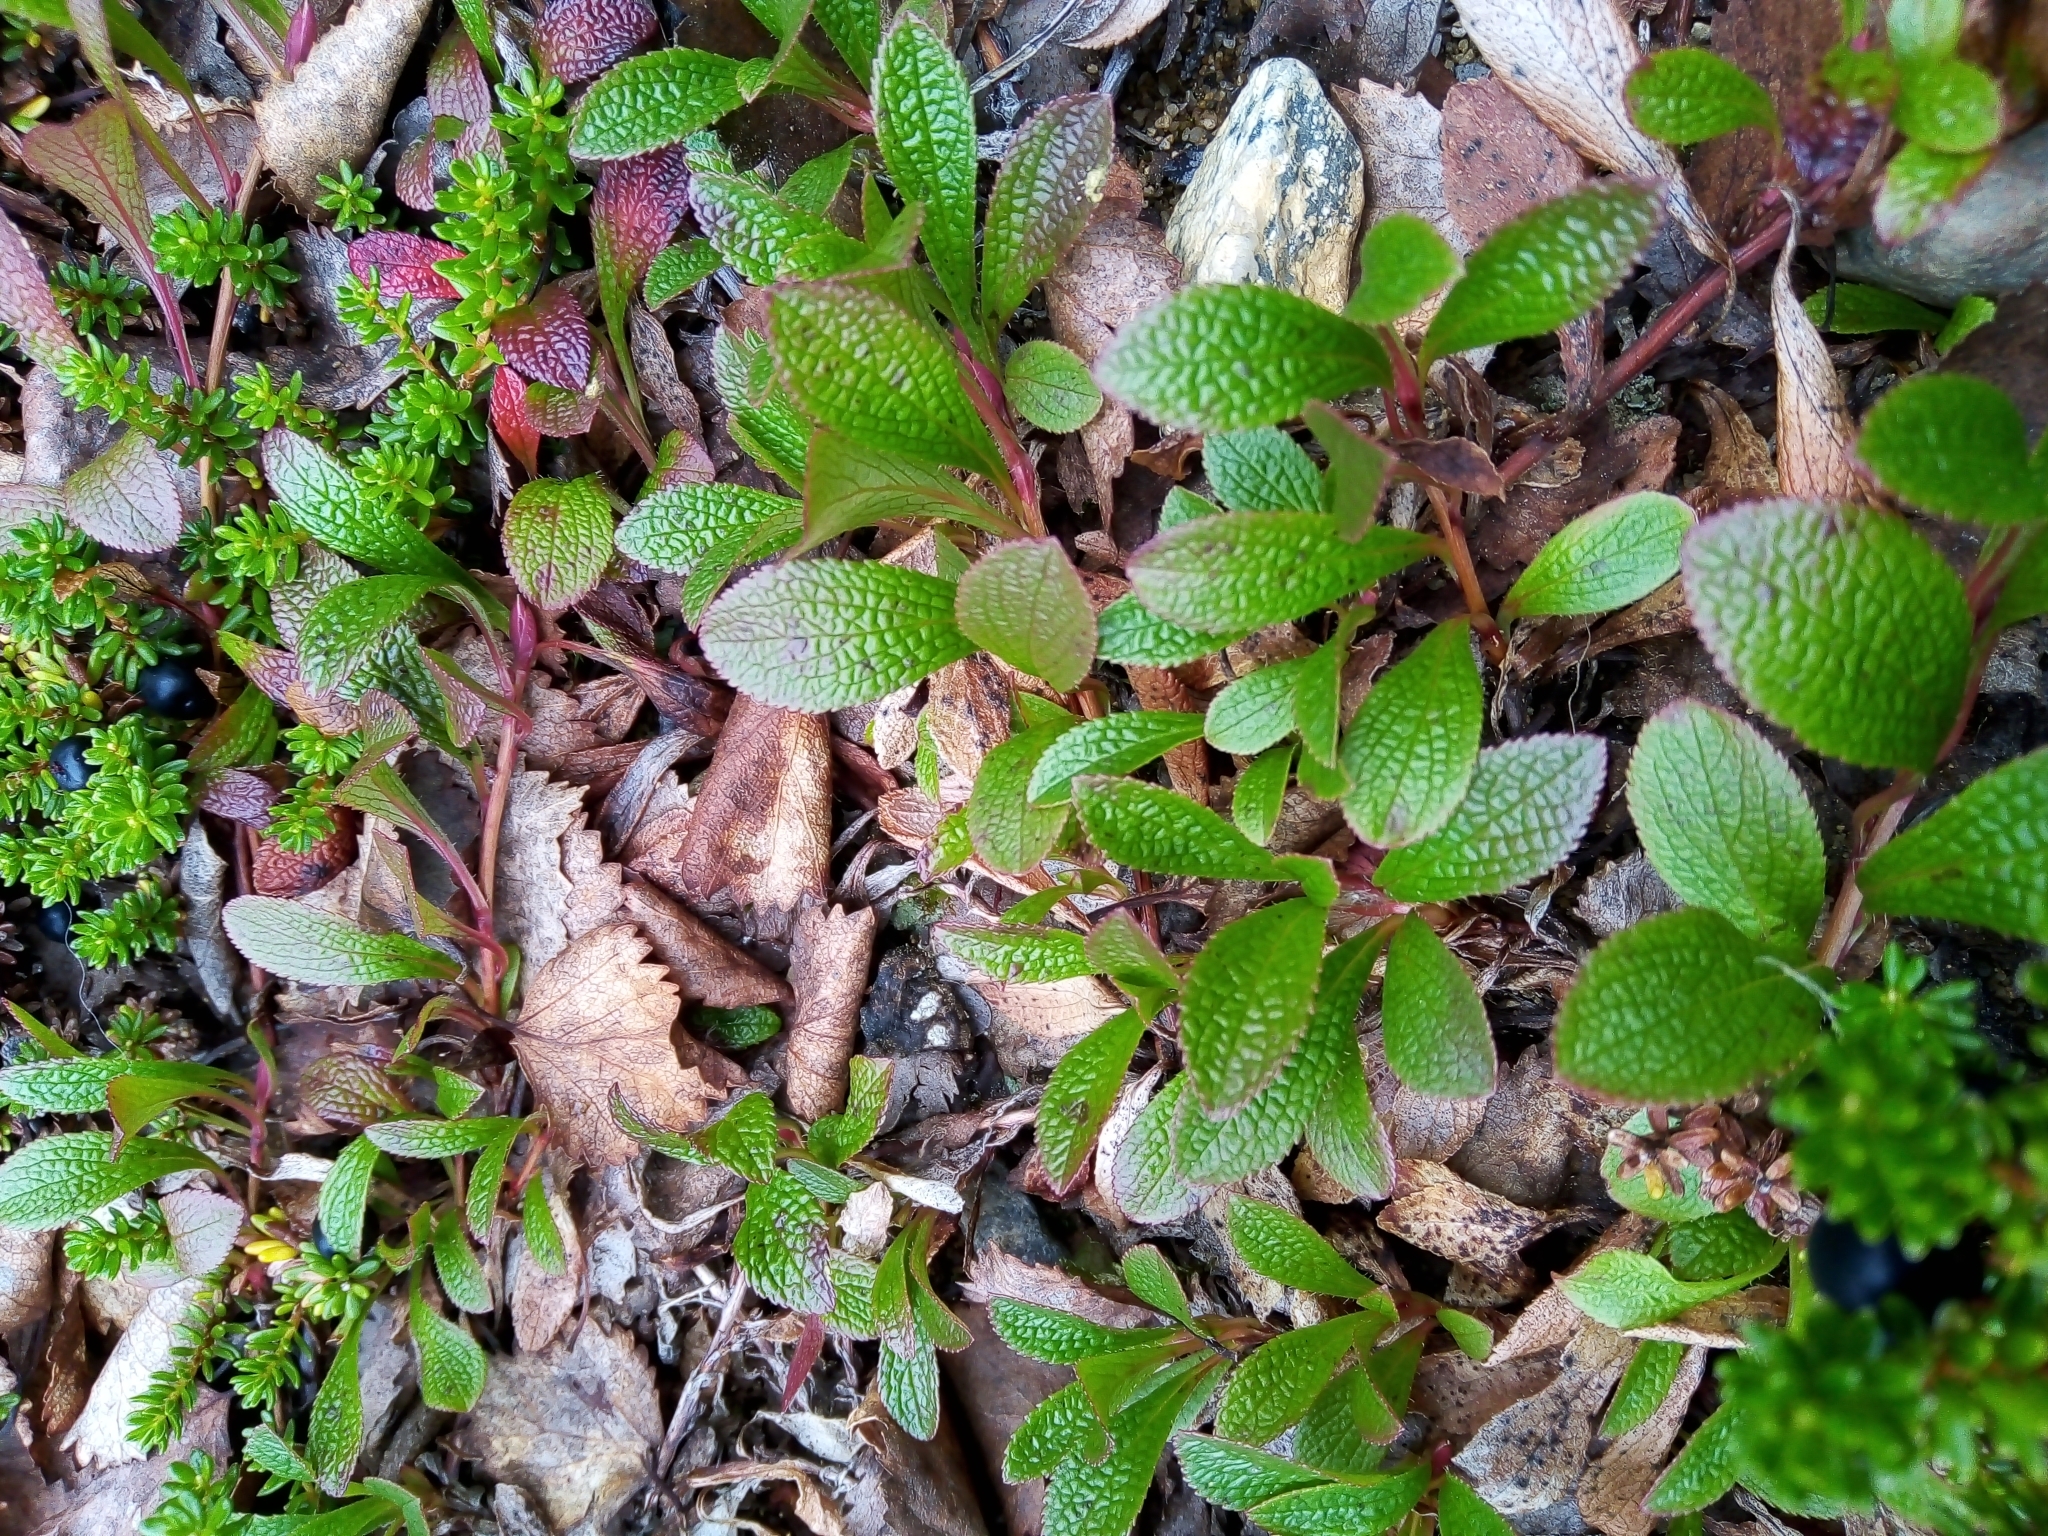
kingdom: Plantae
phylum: Tracheophyta
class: Magnoliopsida
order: Ericales
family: Ericaceae
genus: Arctostaphylos
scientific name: Arctostaphylos alpinus
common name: Alpine bearberry
